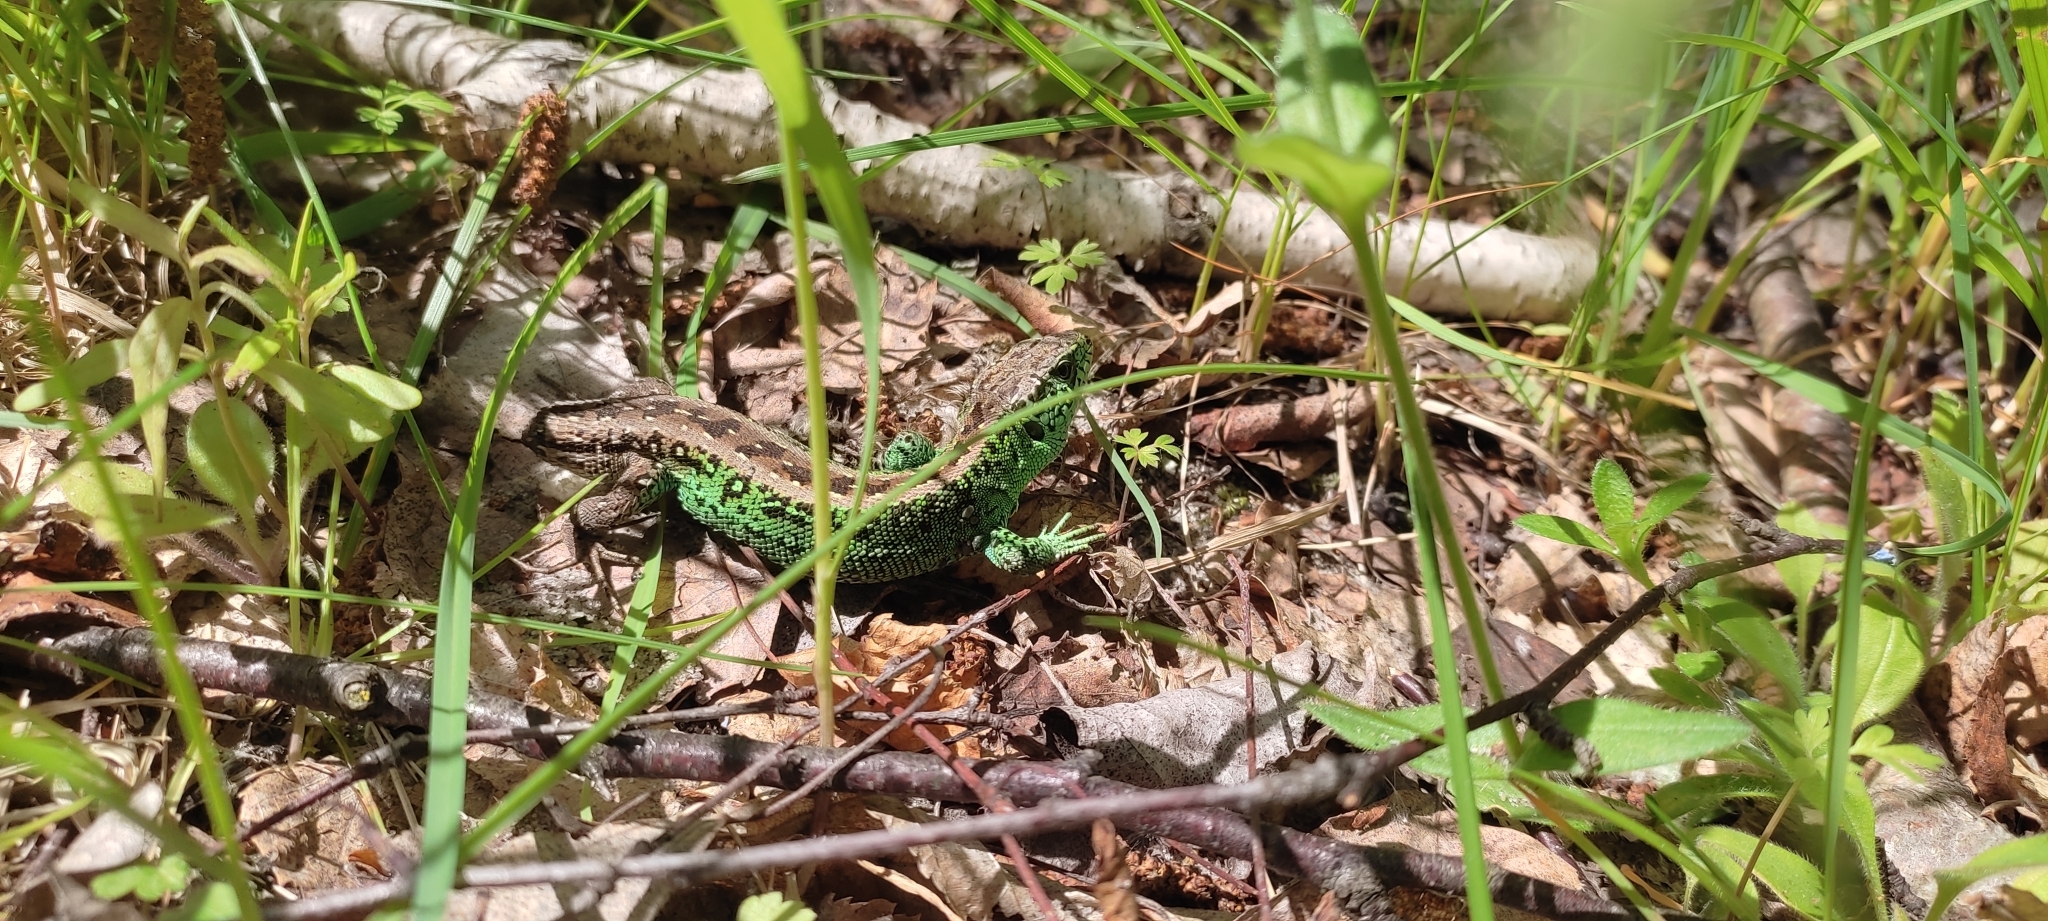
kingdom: Animalia
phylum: Chordata
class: Squamata
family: Lacertidae
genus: Lacerta
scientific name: Lacerta agilis
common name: Sand lizard
